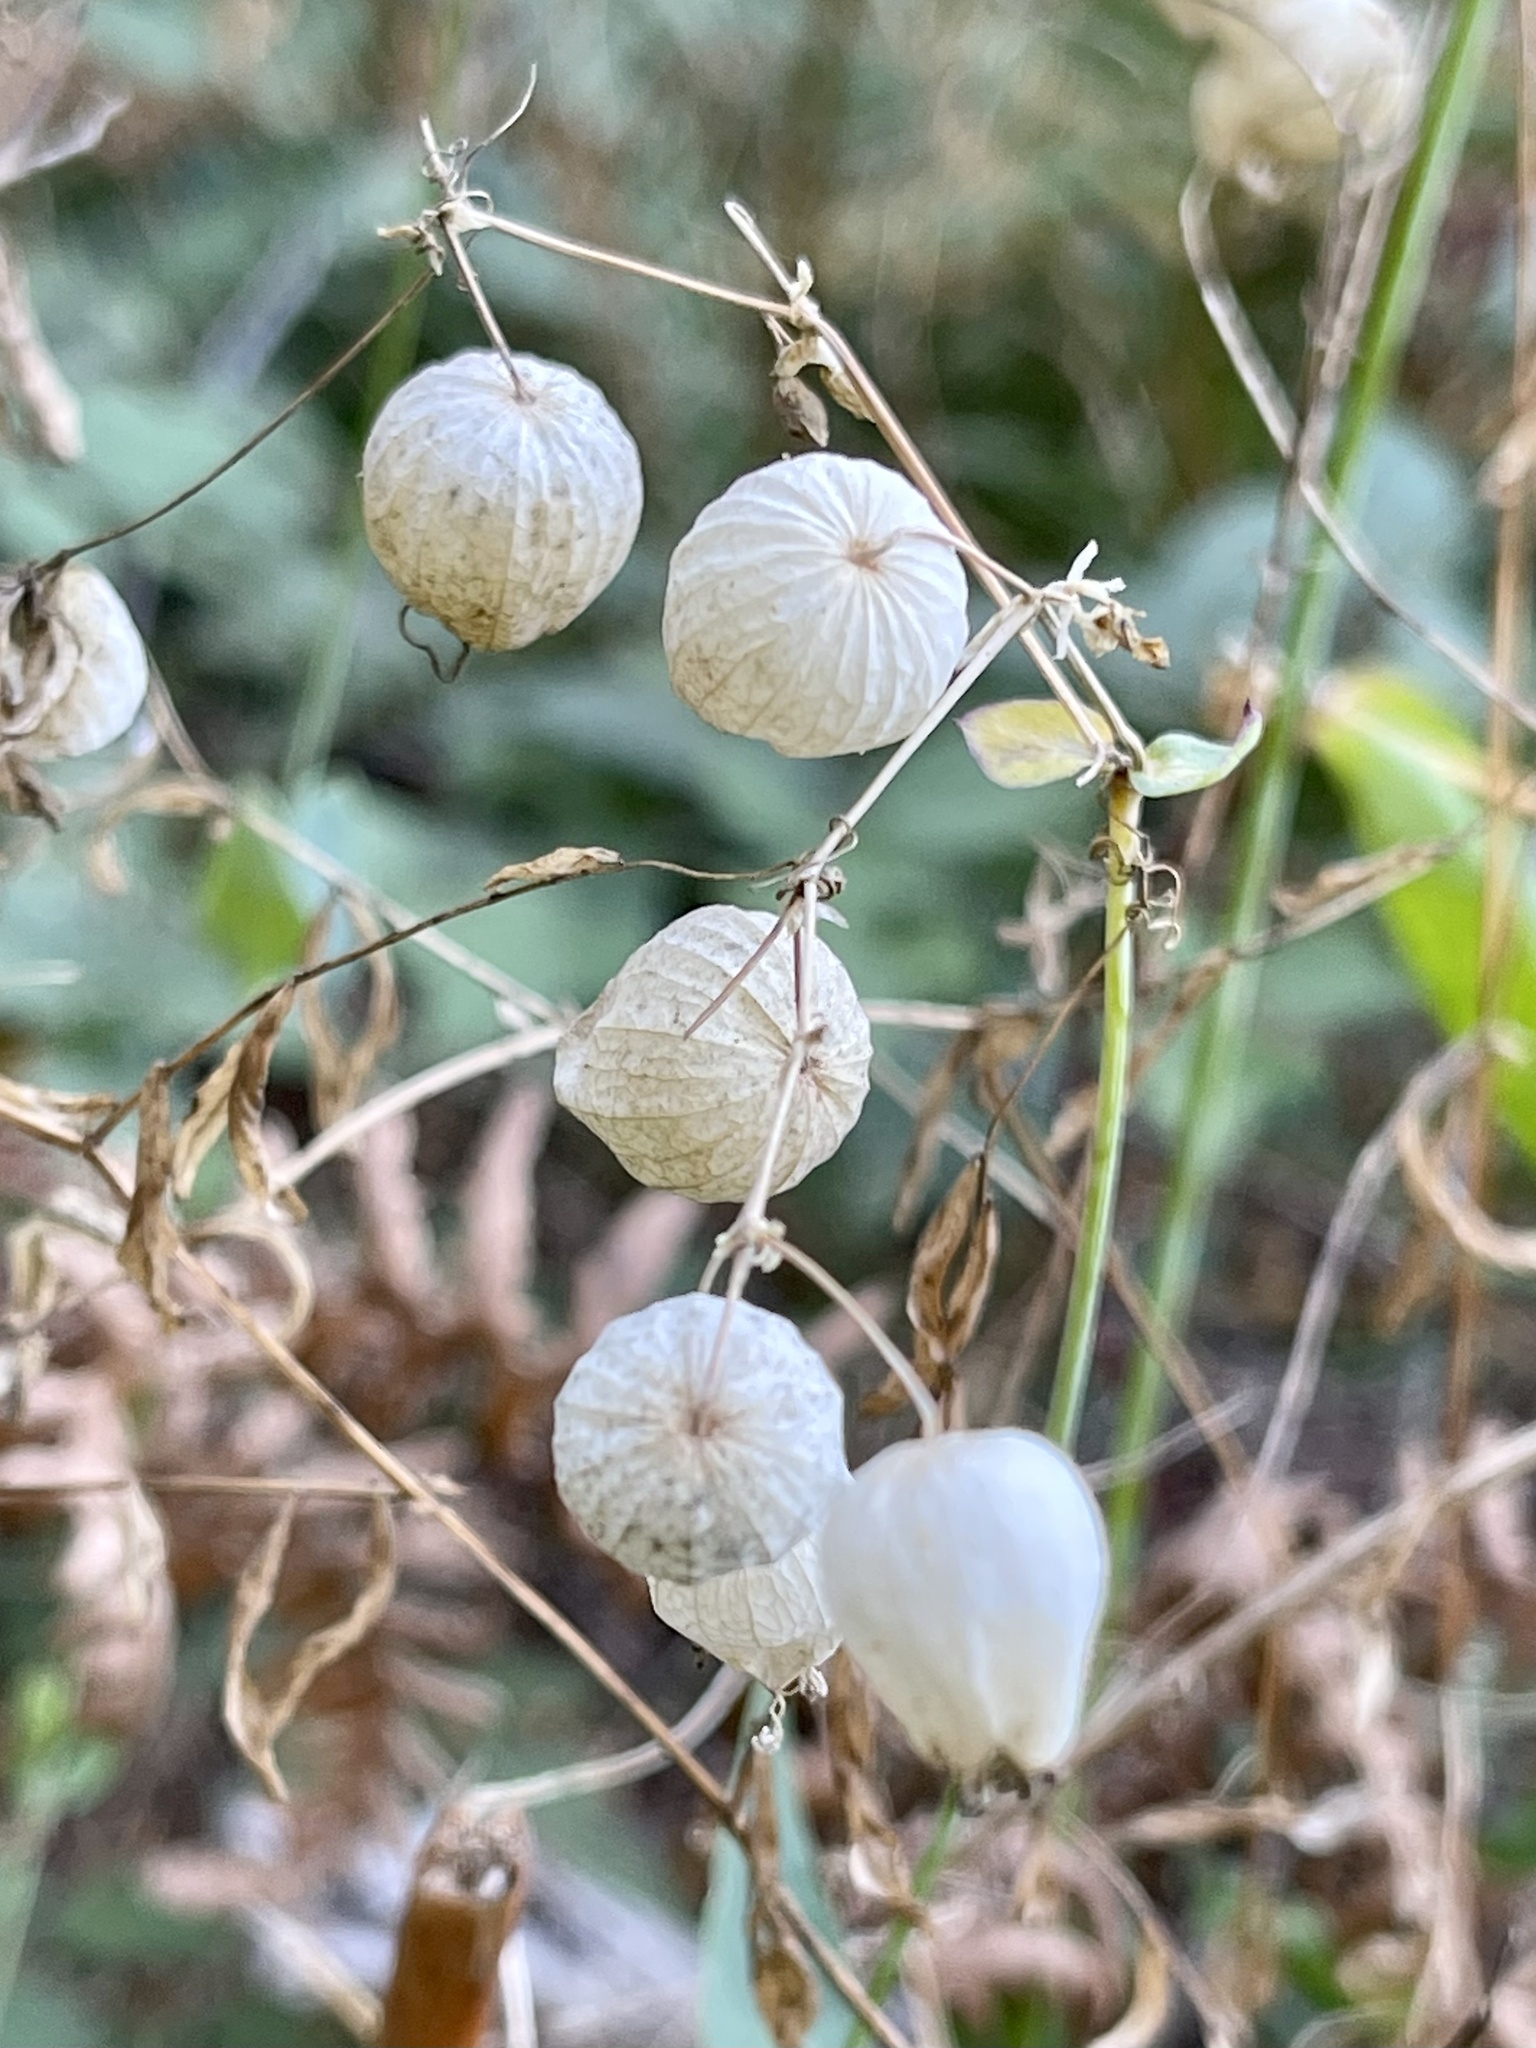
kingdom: Plantae
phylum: Tracheophyta
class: Magnoliopsida
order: Caryophyllales
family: Caryophyllaceae
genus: Silene
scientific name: Silene vulgaris
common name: Bladder campion
